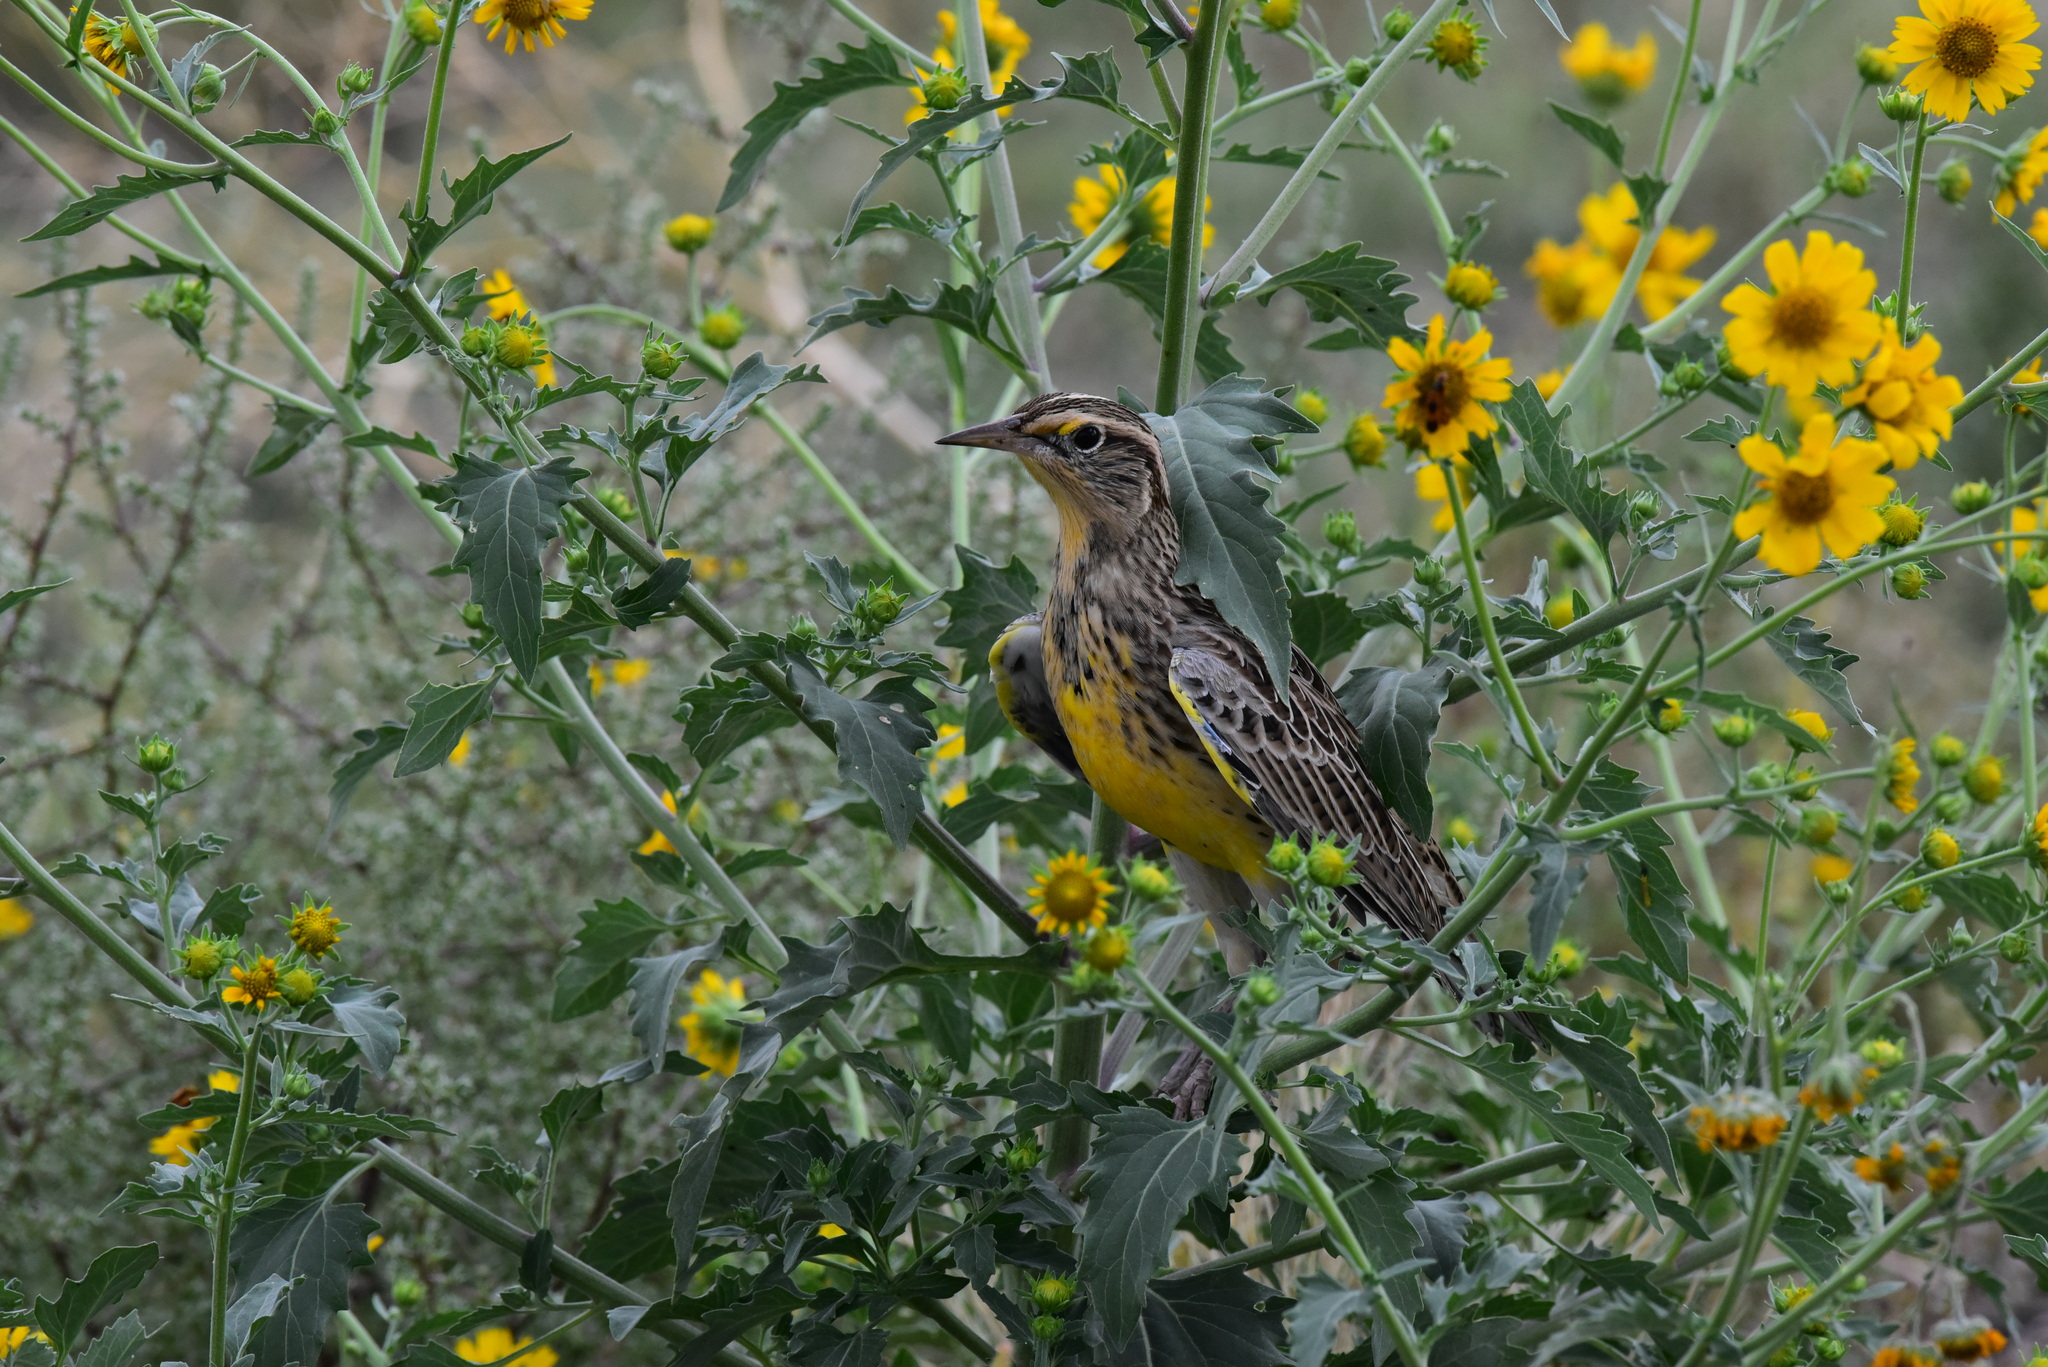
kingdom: Animalia
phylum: Chordata
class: Aves
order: Passeriformes
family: Icteridae
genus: Sturnella
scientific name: Sturnella neglecta
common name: Western meadowlark
